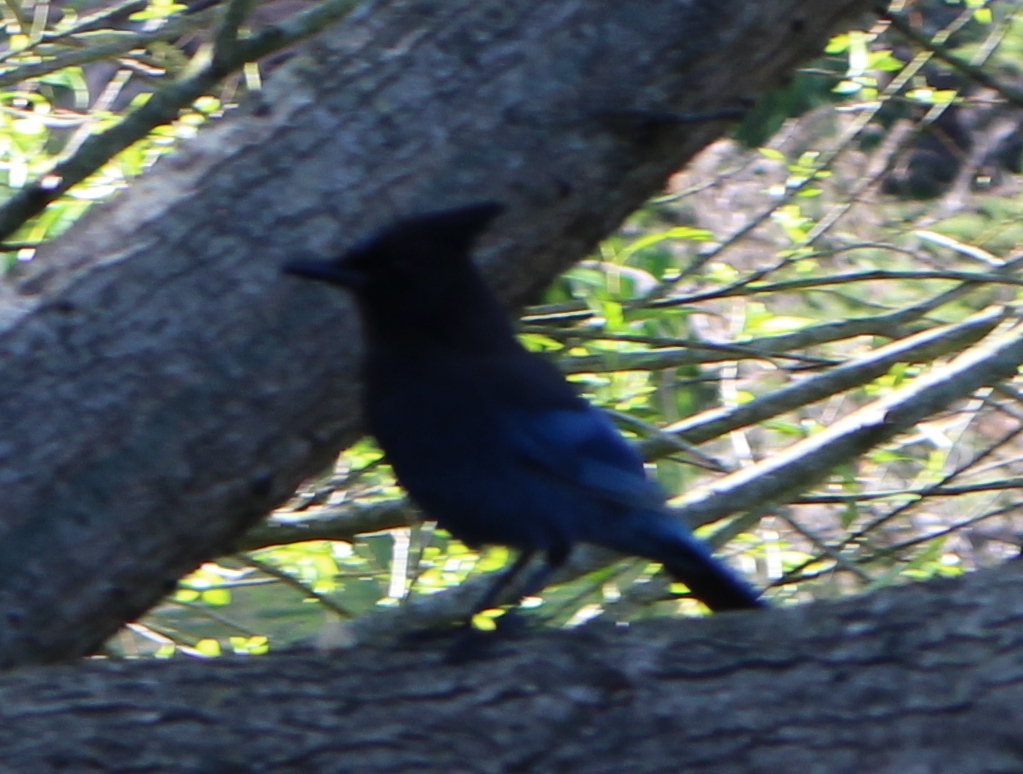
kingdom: Animalia
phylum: Chordata
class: Aves
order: Passeriformes
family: Corvidae
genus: Cyanocitta
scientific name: Cyanocitta stelleri
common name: Steller's jay
